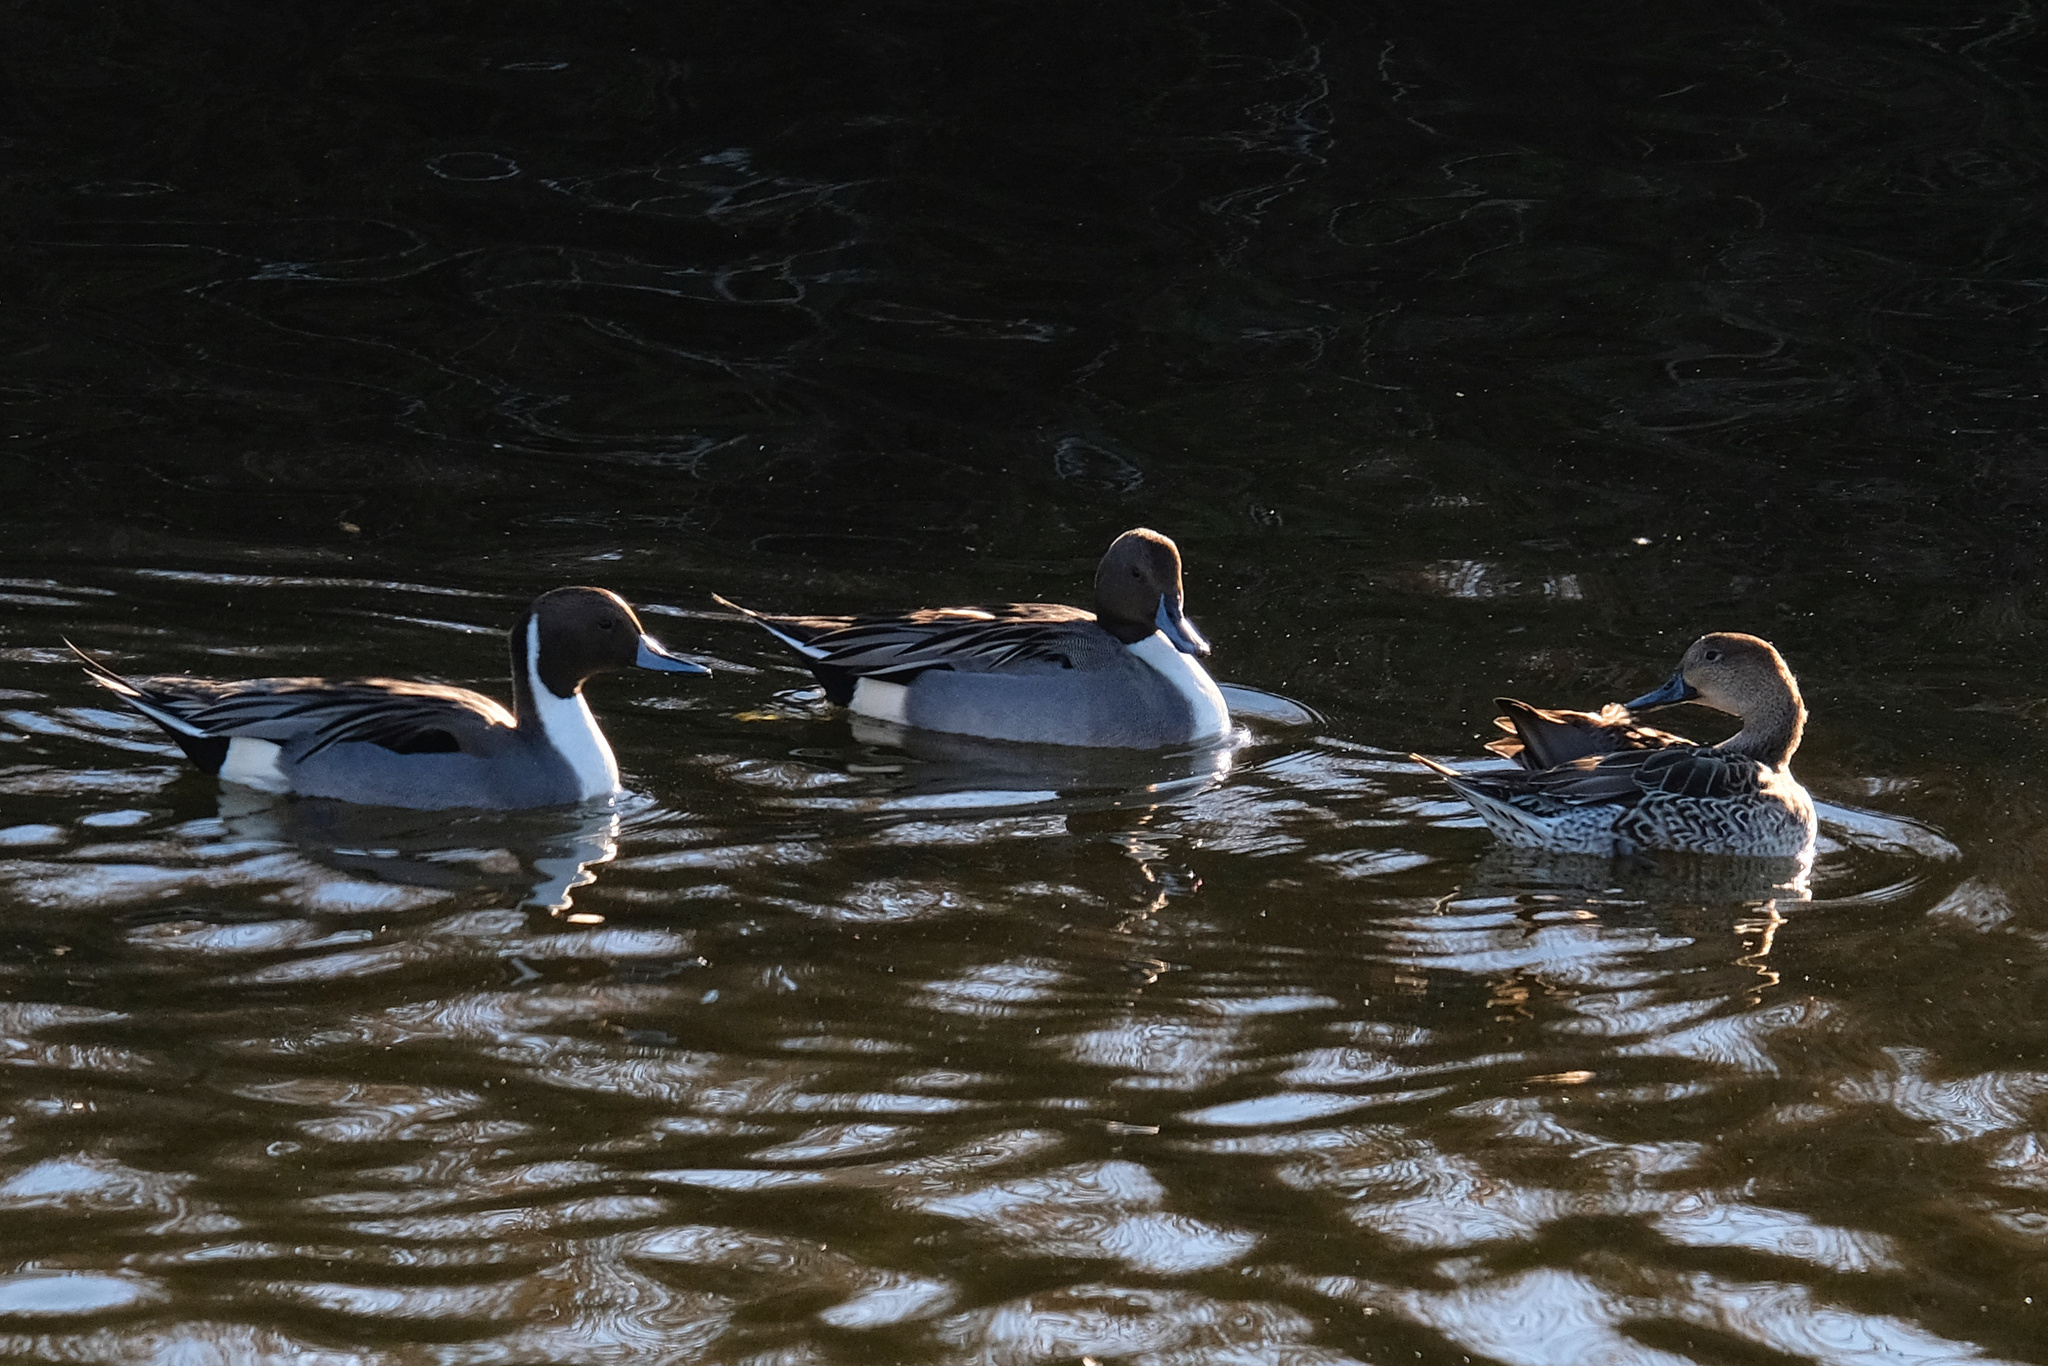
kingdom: Animalia
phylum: Chordata
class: Aves
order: Anseriformes
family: Anatidae
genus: Anas
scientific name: Anas acuta
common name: Northern pintail
